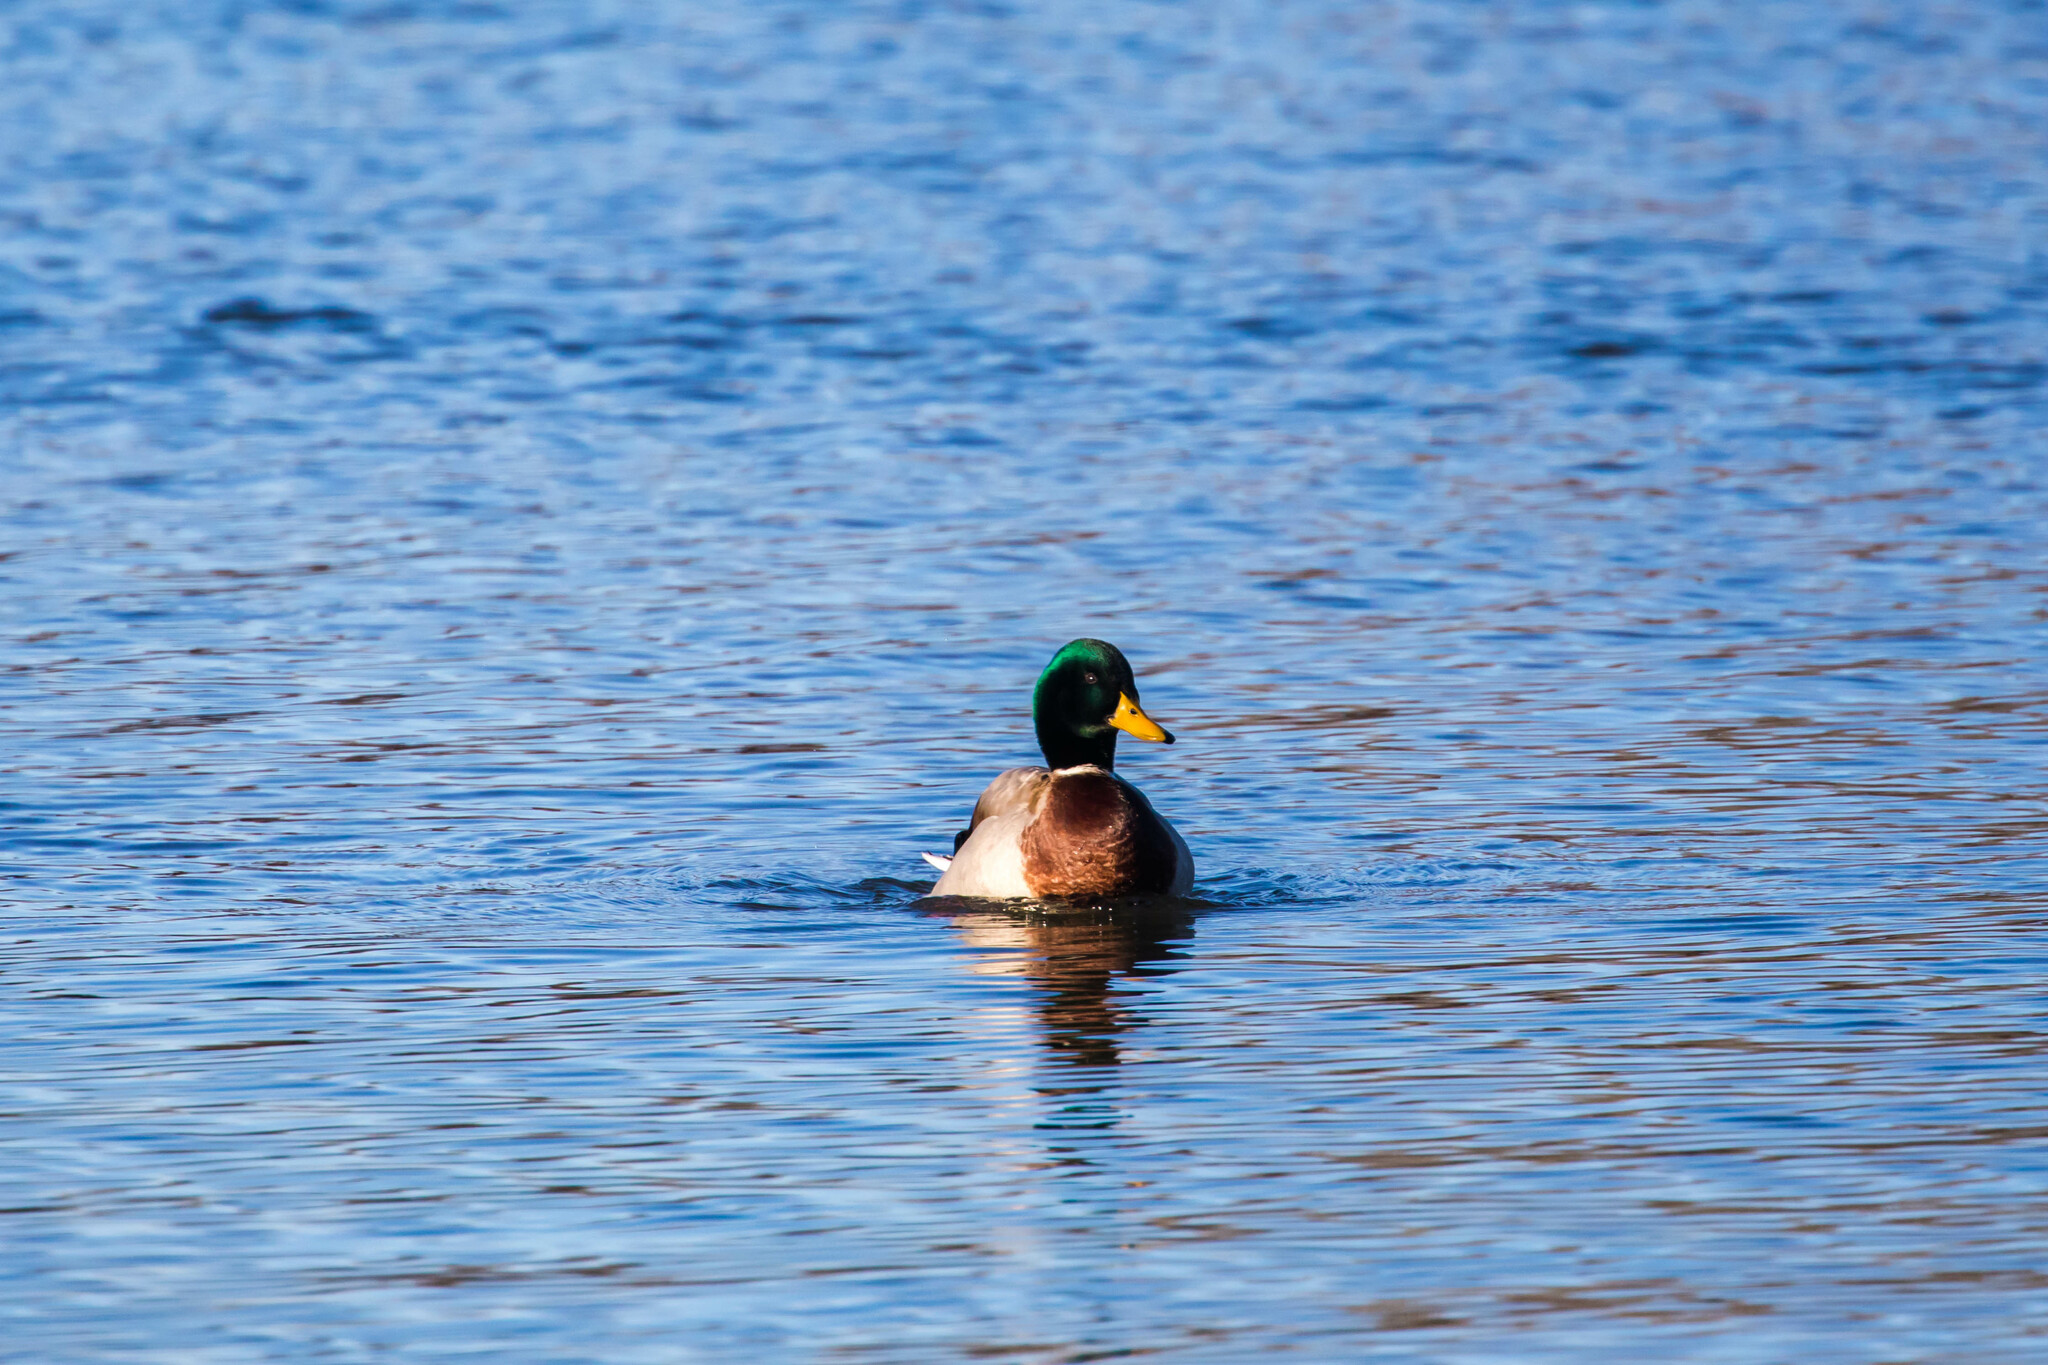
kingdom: Animalia
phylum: Chordata
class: Aves
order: Anseriformes
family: Anatidae
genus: Anas
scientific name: Anas platyrhynchos
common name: Mallard
